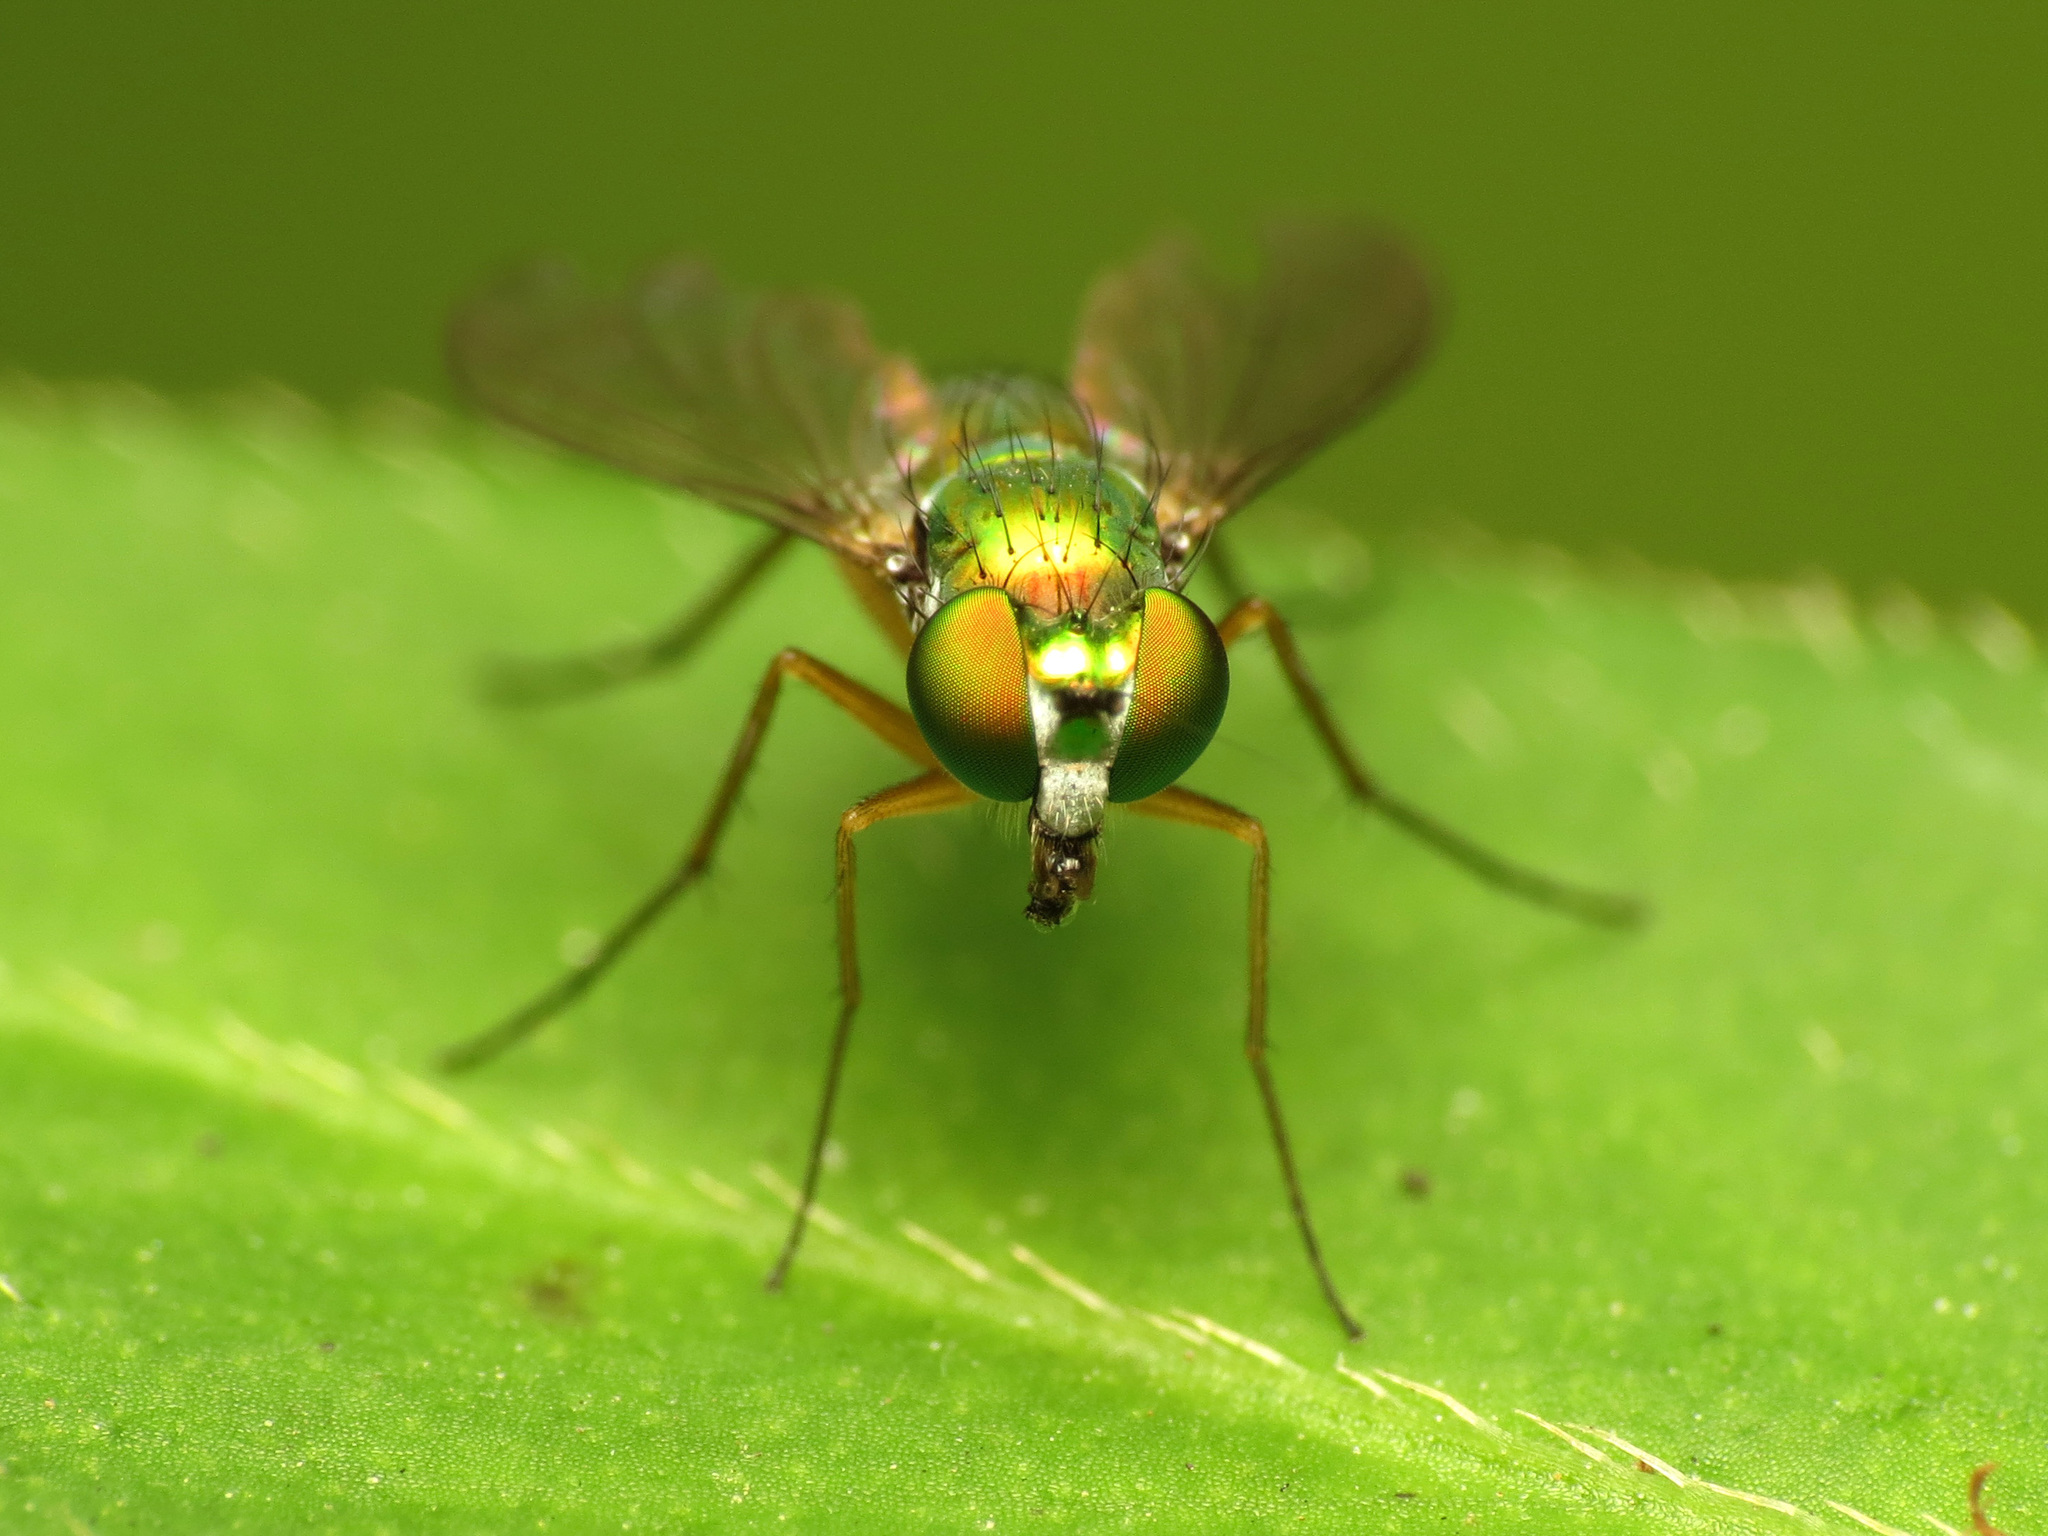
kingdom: Animalia
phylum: Arthropoda
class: Insecta
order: Diptera
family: Dolichopodidae
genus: Condylostylus
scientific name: Condylostylus
